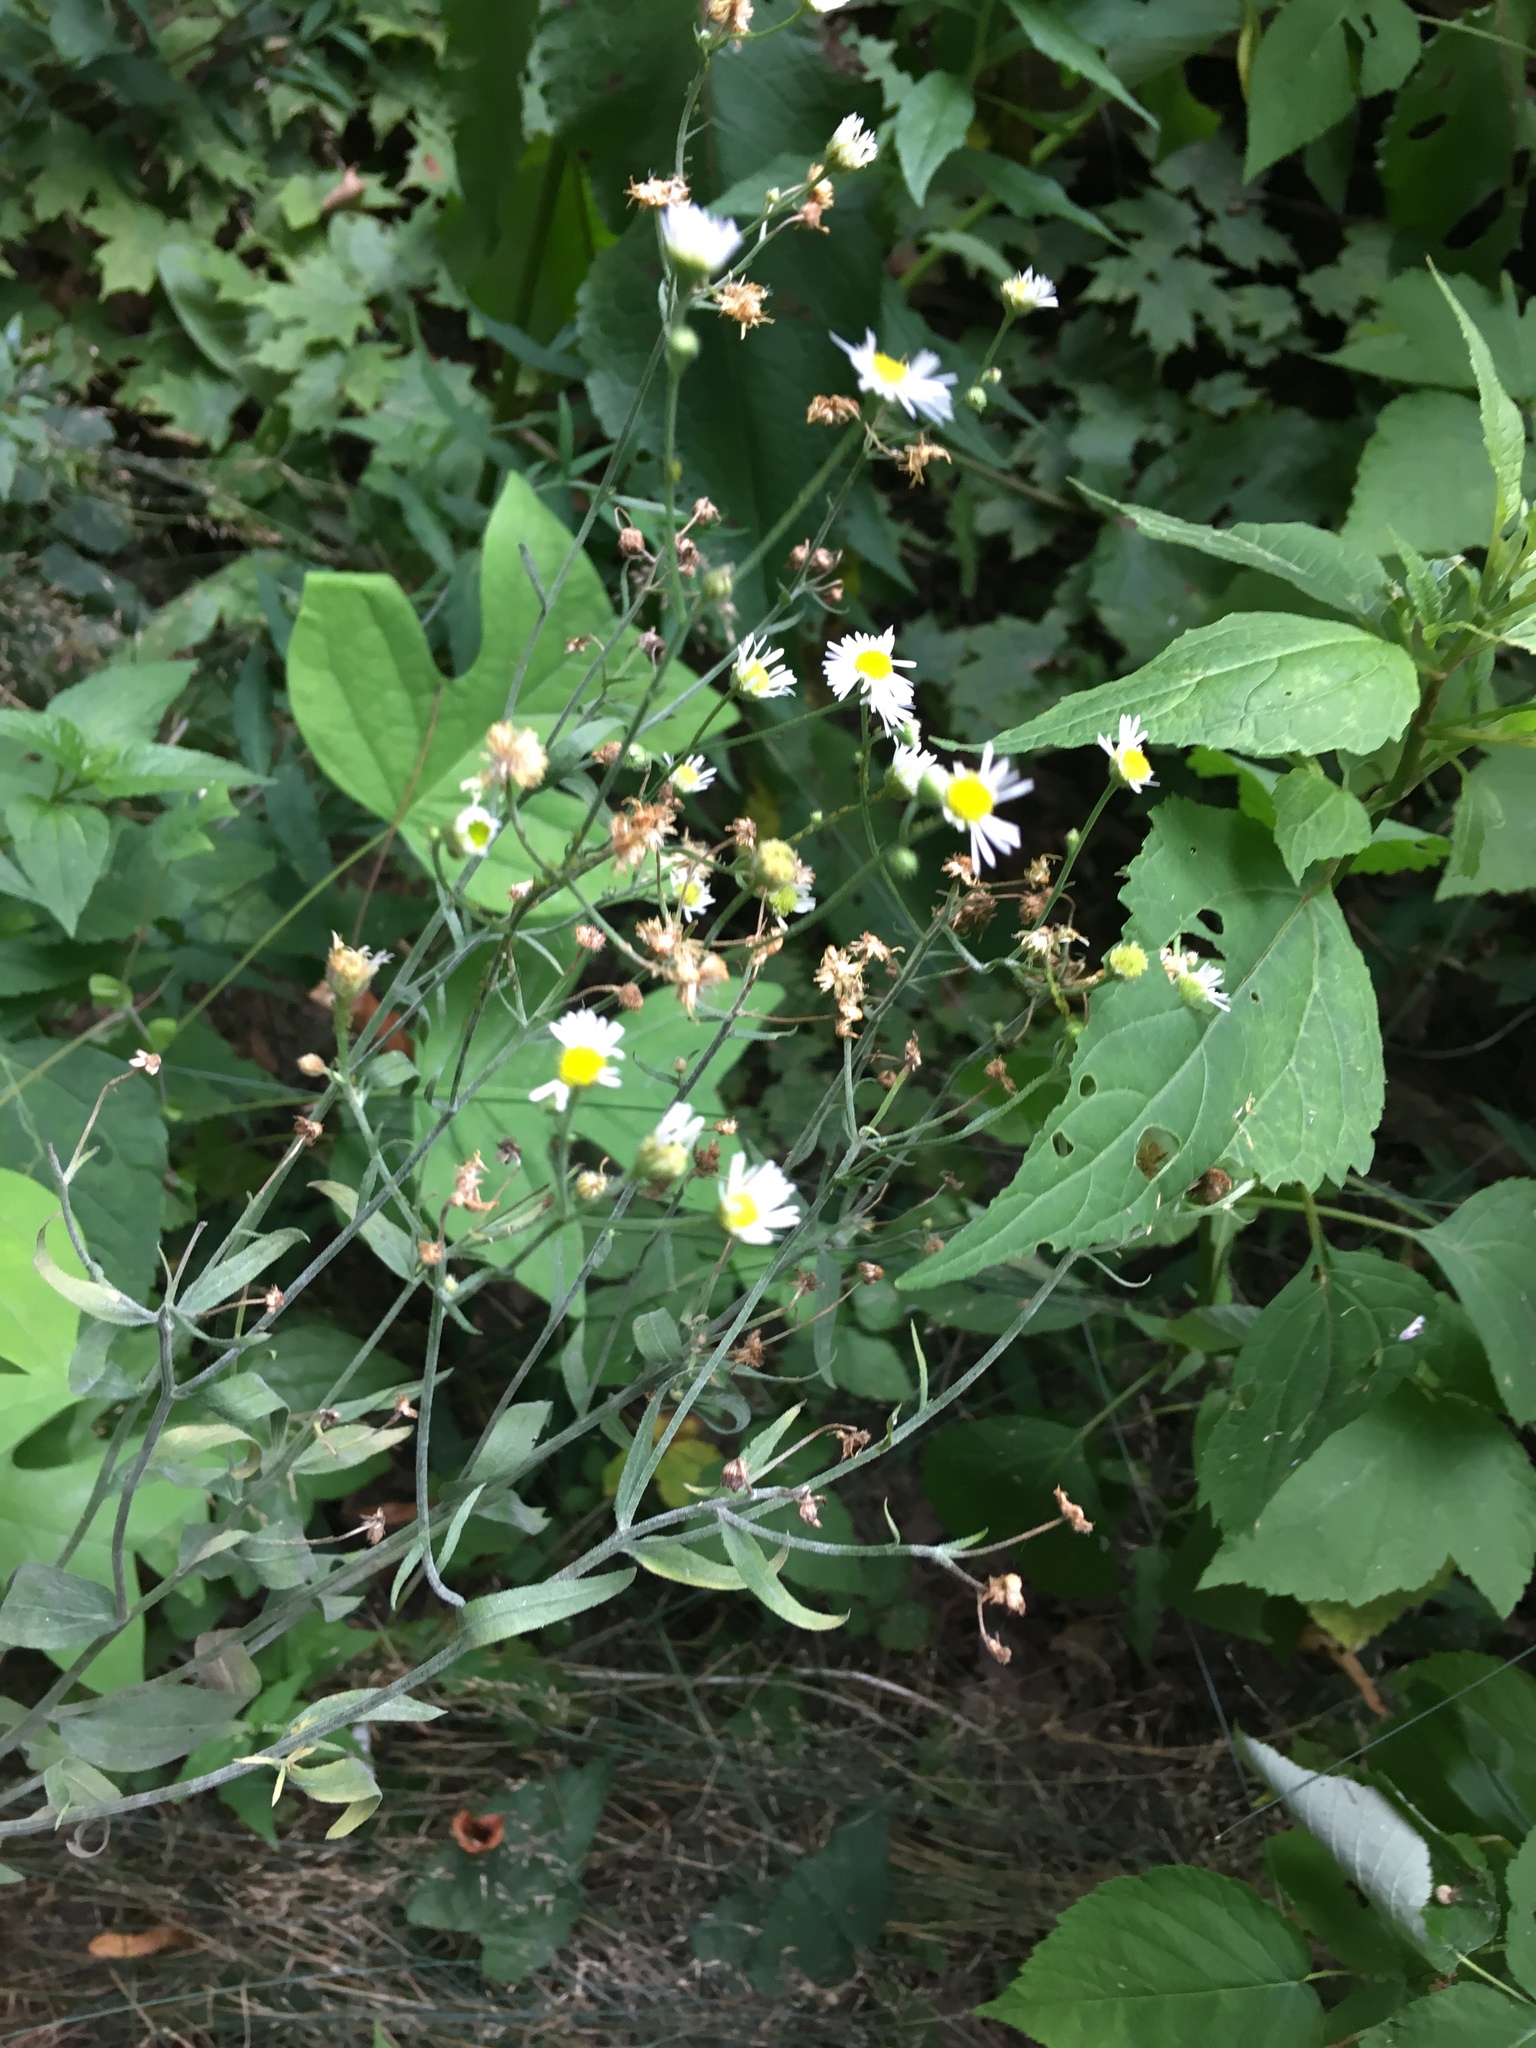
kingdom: Plantae
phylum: Tracheophyta
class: Magnoliopsida
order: Asterales
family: Asteraceae
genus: Erigeron
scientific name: Erigeron strigosus
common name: Common eastern fleabane
